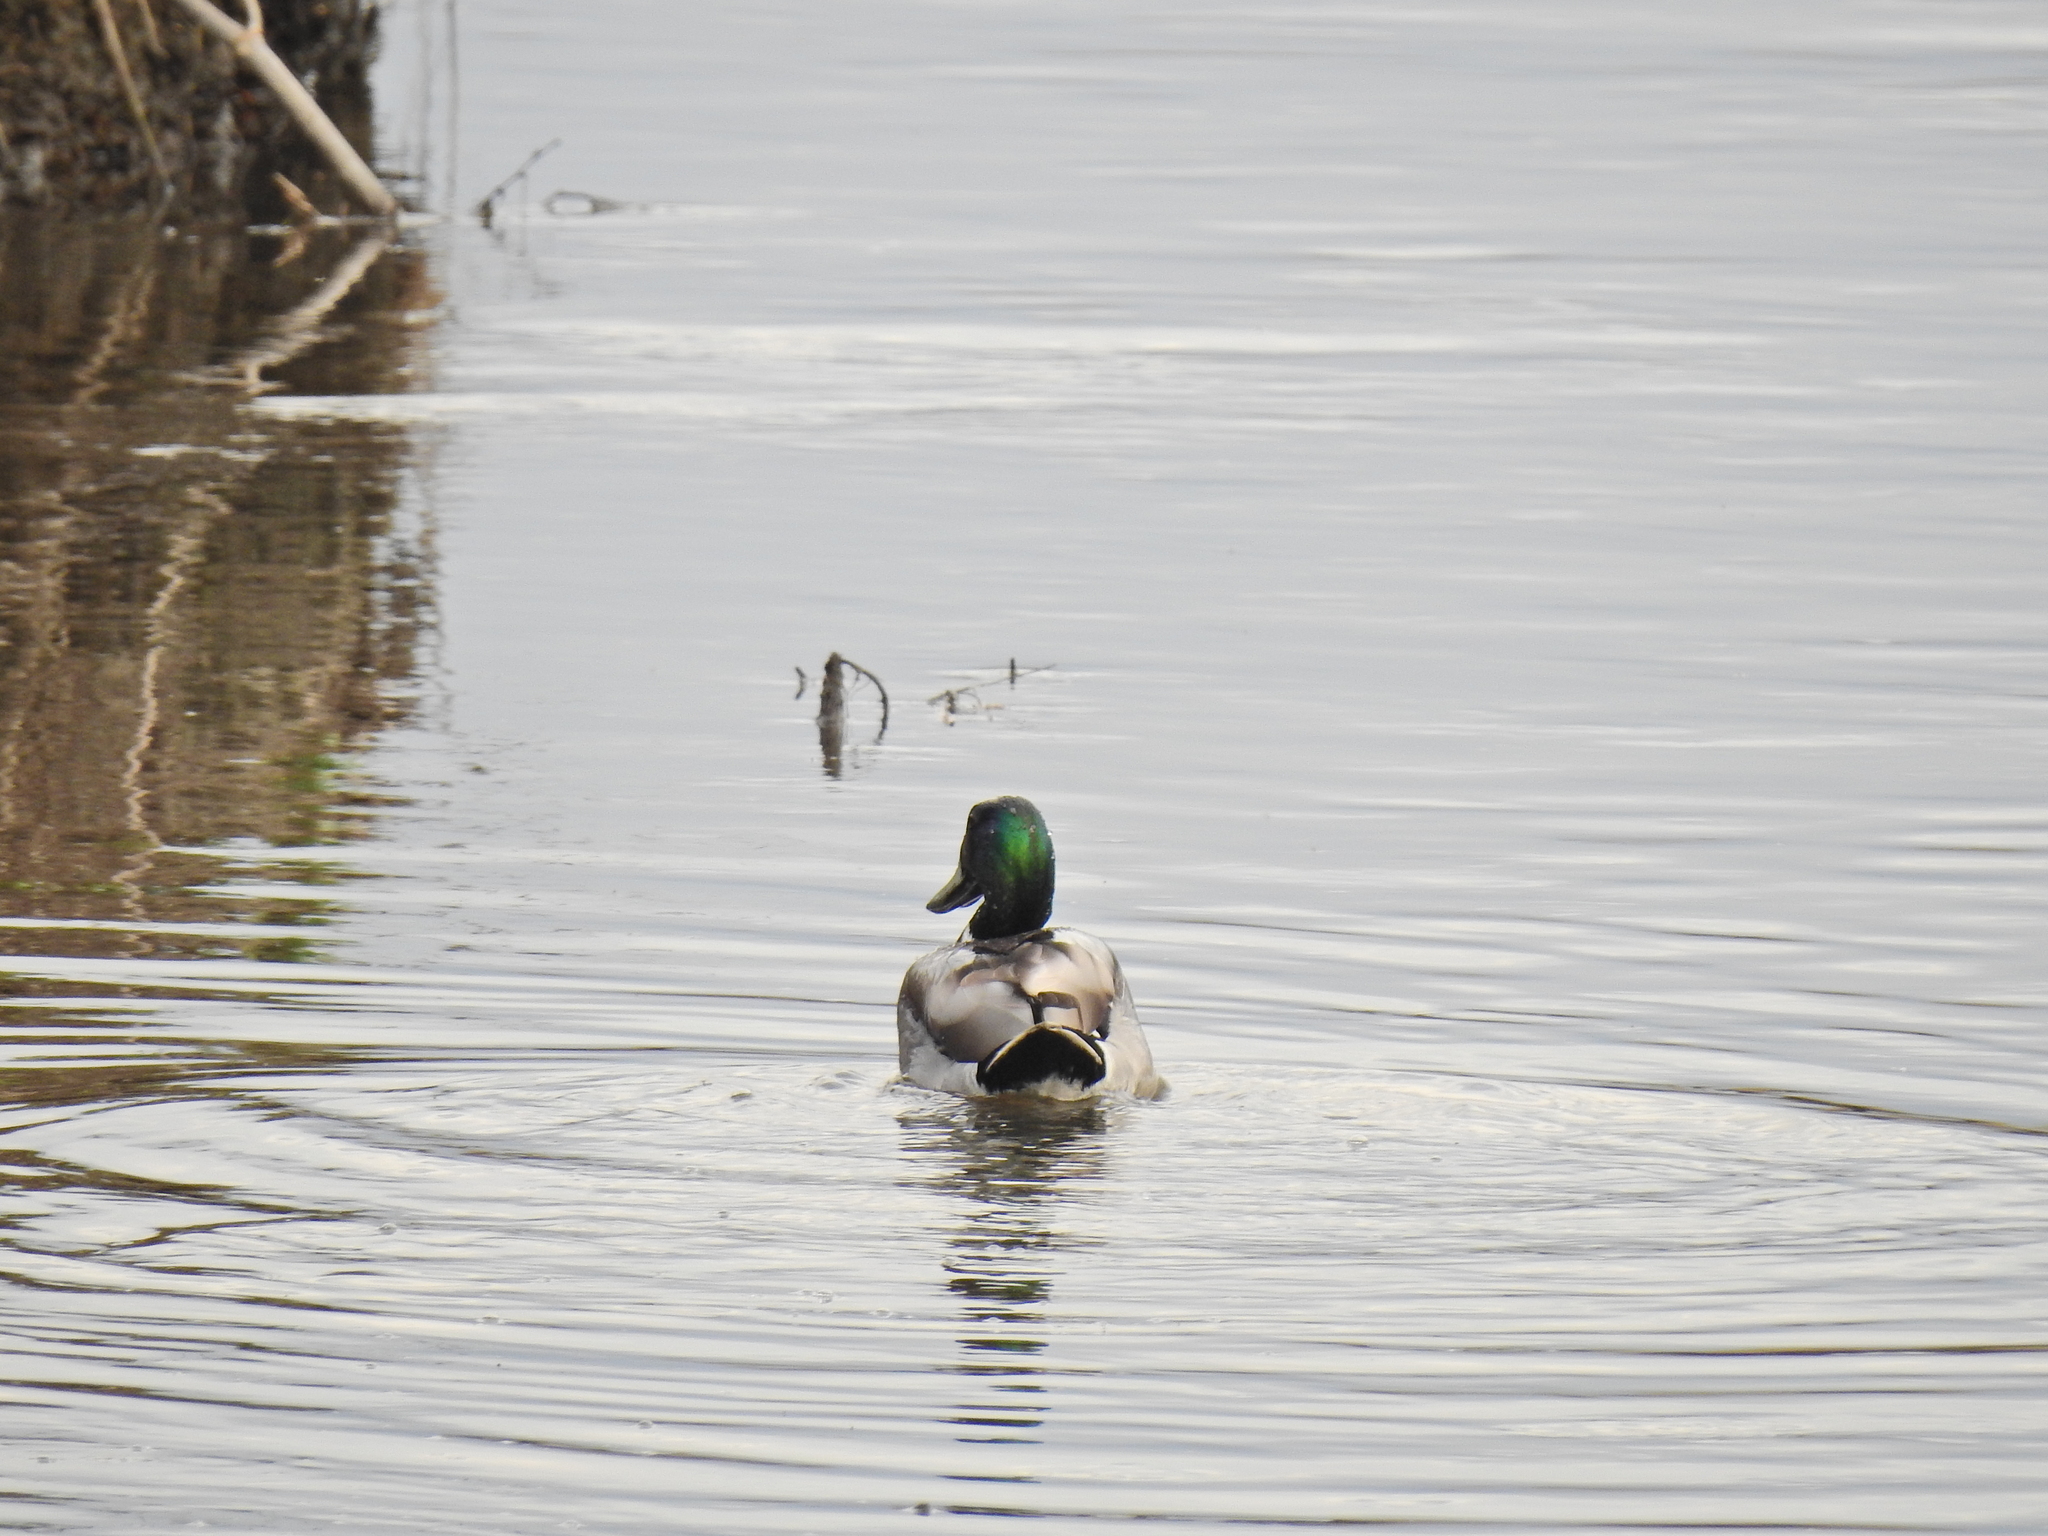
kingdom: Animalia
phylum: Chordata
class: Aves
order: Anseriformes
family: Anatidae
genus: Anas
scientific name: Anas platyrhynchos
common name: Mallard
